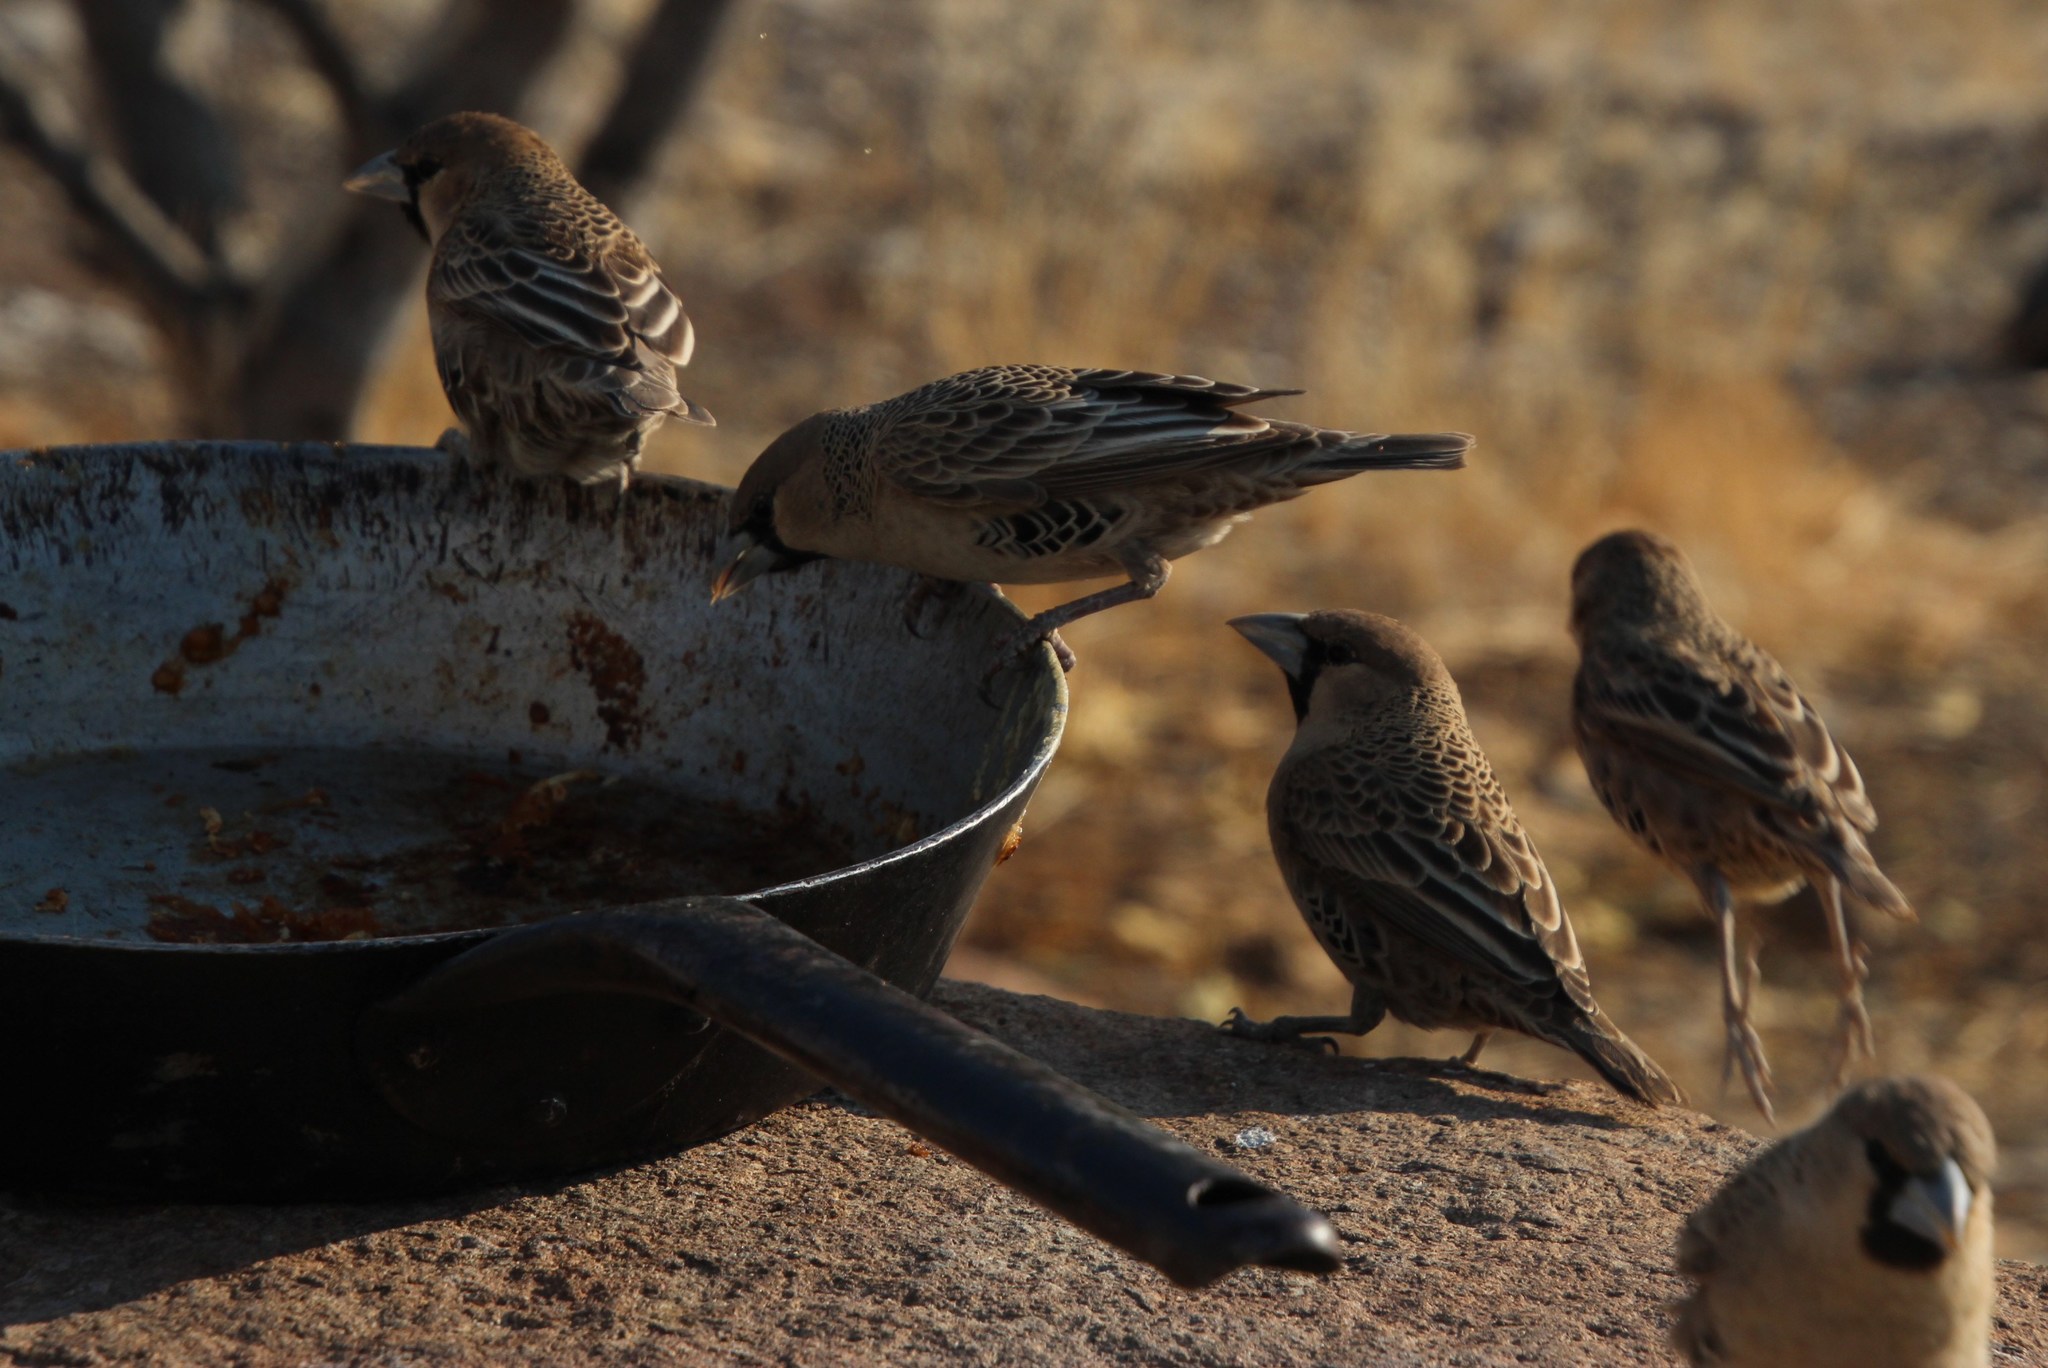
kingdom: Animalia
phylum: Chordata
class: Aves
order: Passeriformes
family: Passeridae
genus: Philetairus
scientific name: Philetairus socius
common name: Sociable weaver
